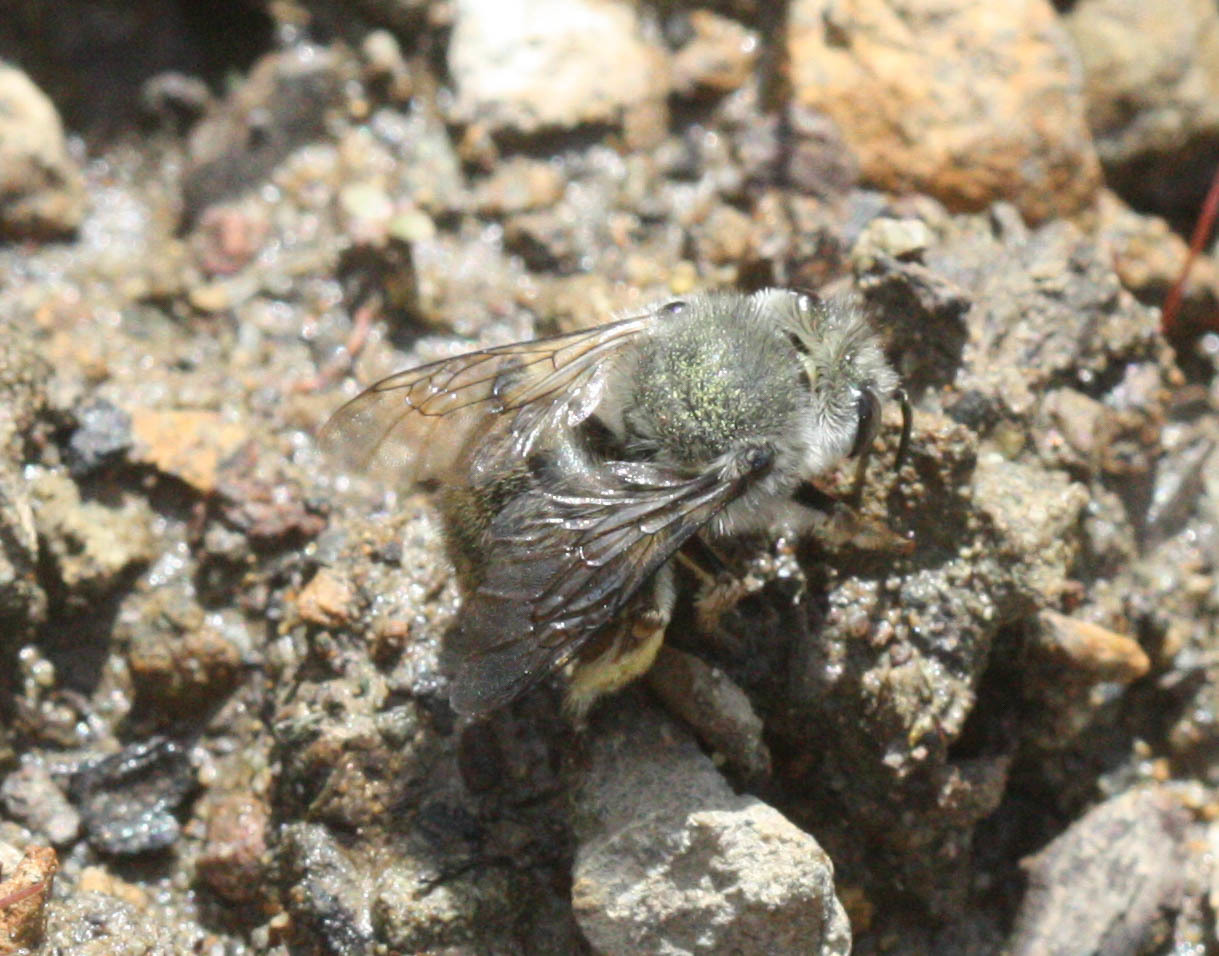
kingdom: Animalia
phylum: Arthropoda
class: Insecta
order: Hymenoptera
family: Apidae
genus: Habropoda
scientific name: Habropoda depressa
